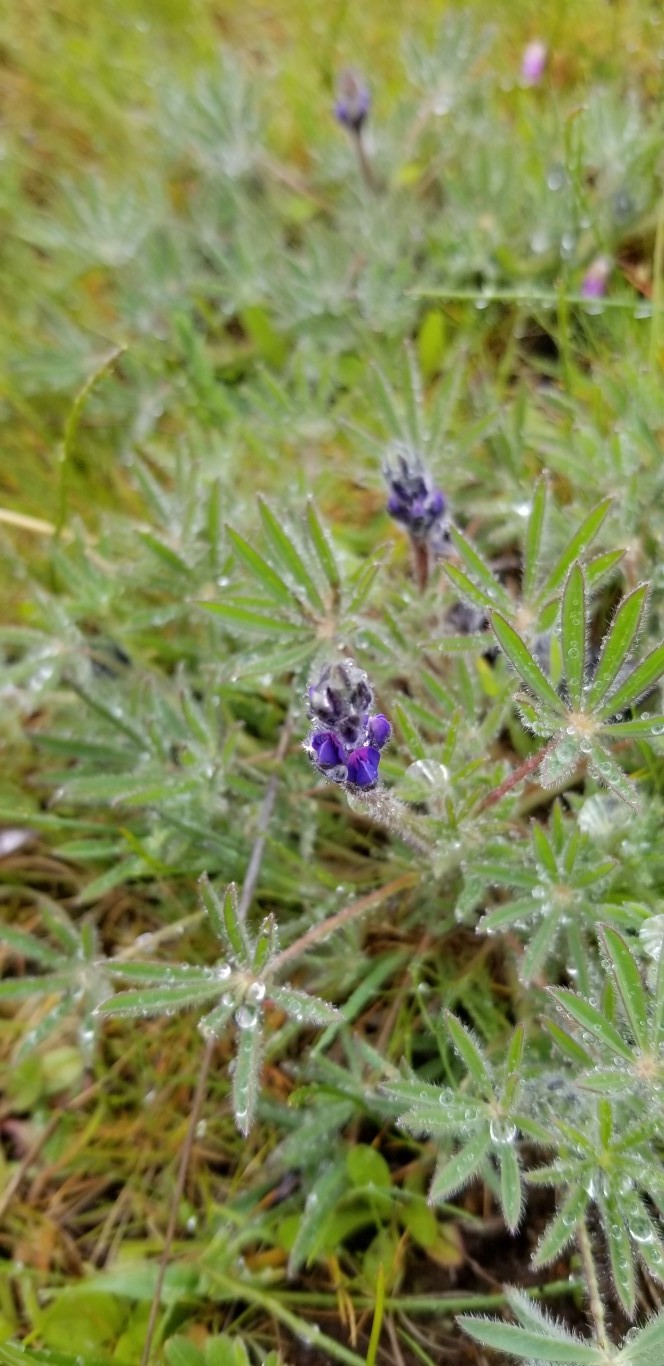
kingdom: Plantae
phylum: Tracheophyta
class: Magnoliopsida
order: Fabales
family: Fabaceae
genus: Lupinus
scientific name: Lupinus bicolor
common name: Miniature lupine
